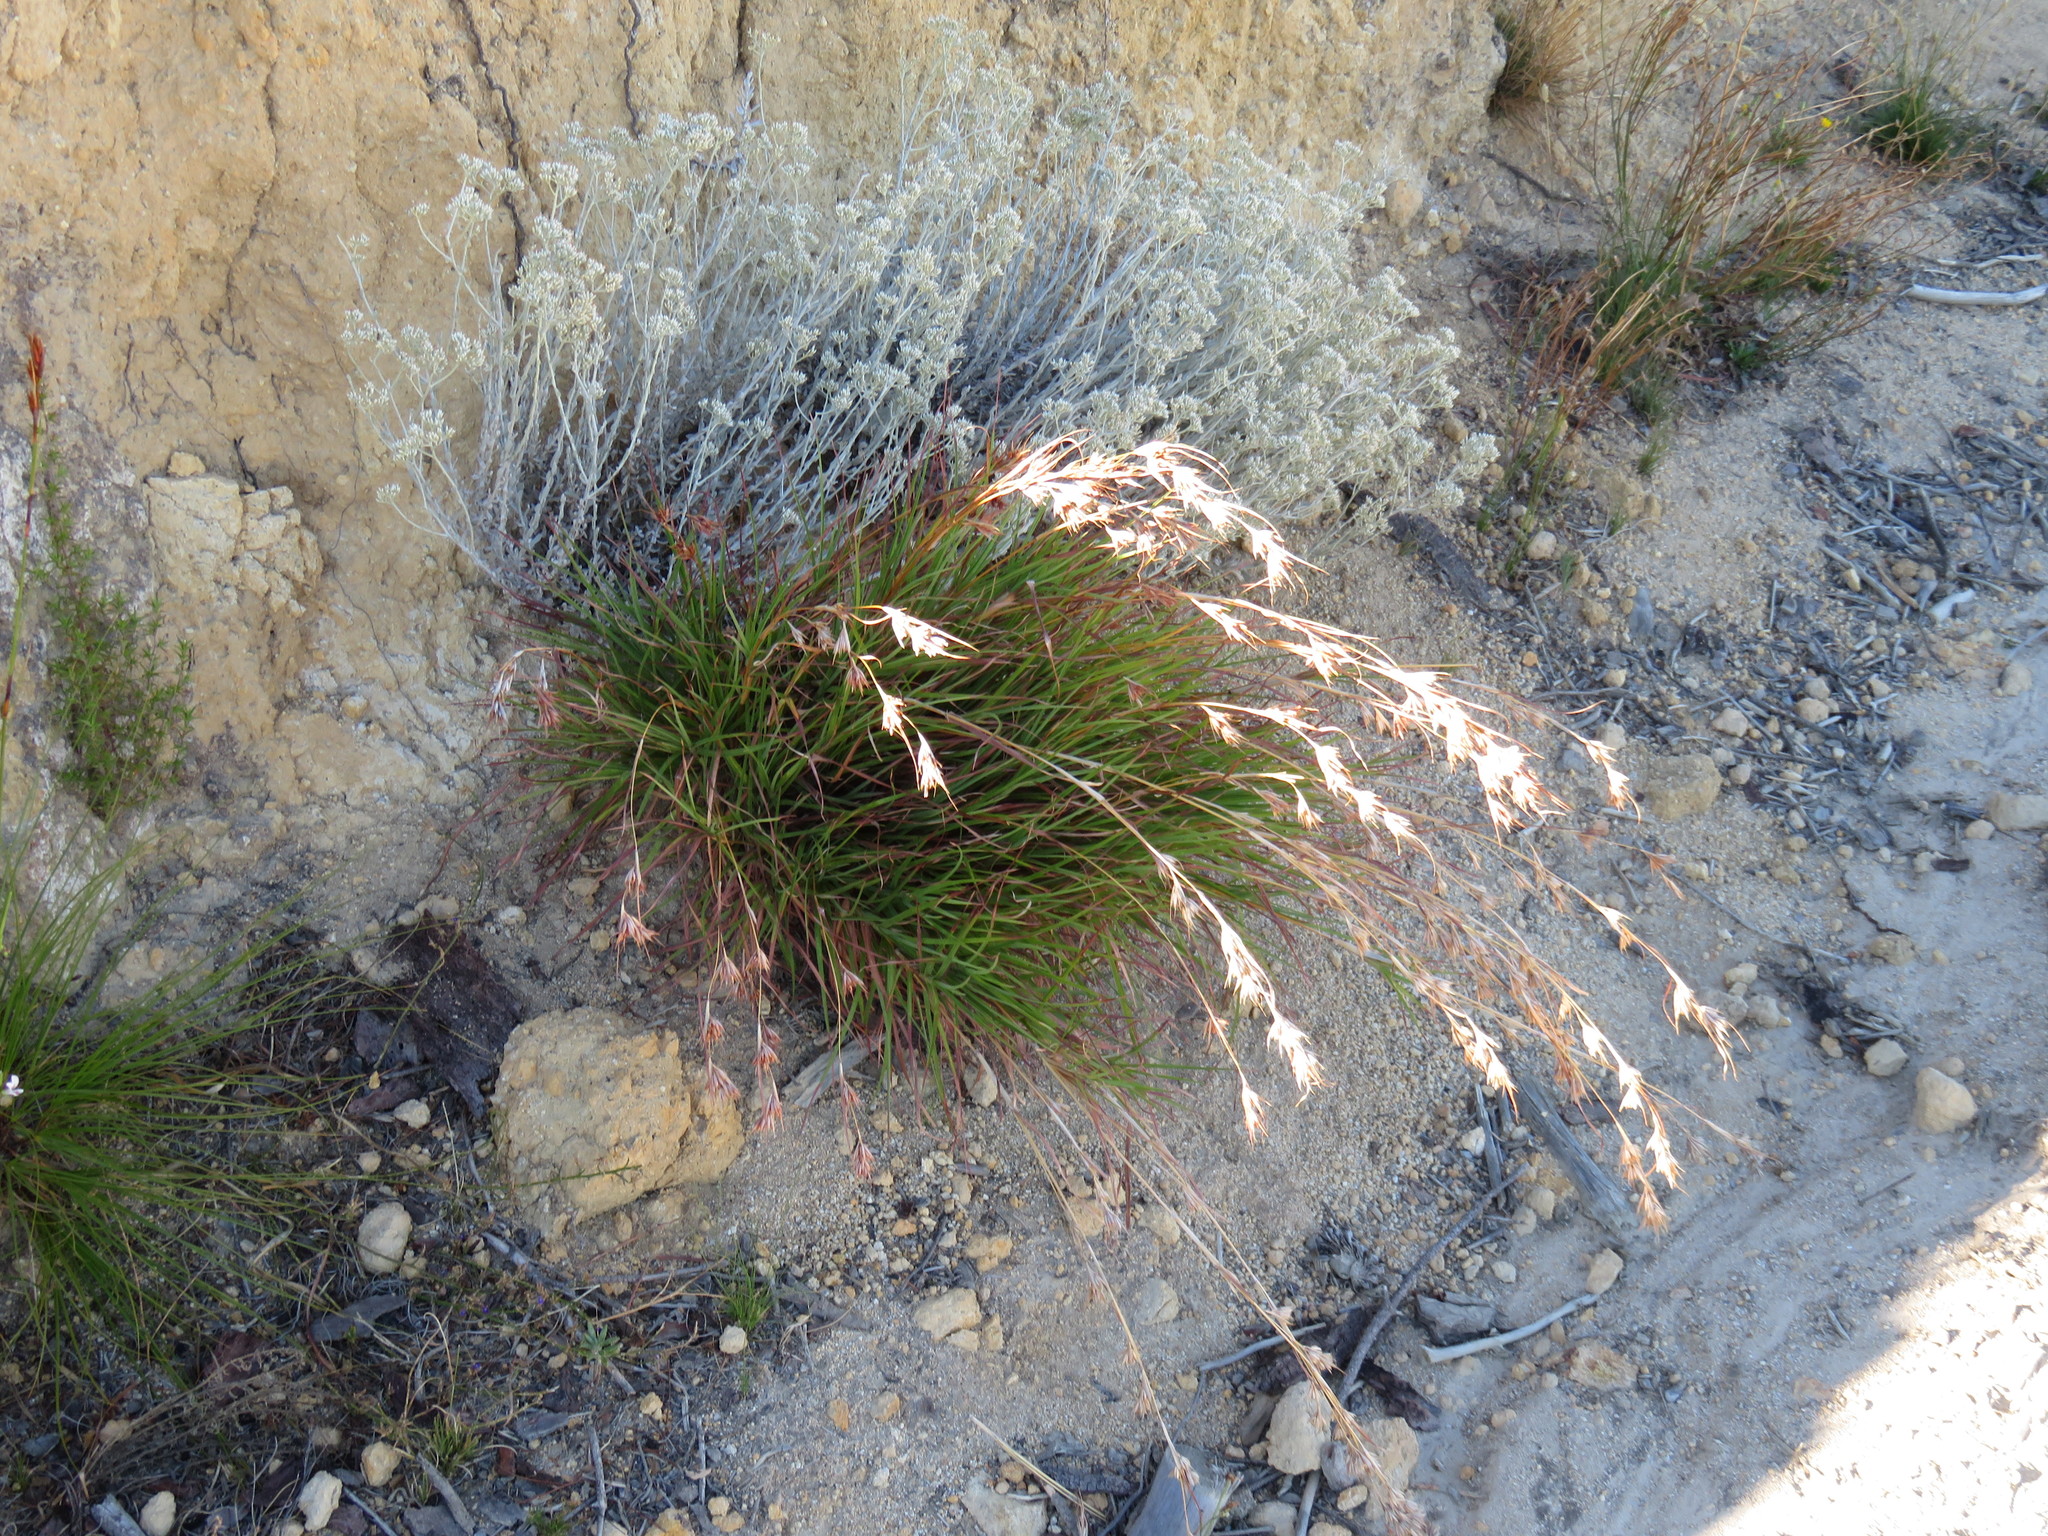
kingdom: Plantae
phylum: Tracheophyta
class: Liliopsida
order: Poales
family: Poaceae
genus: Themeda
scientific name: Themeda triandra
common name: Kangaroo grass
